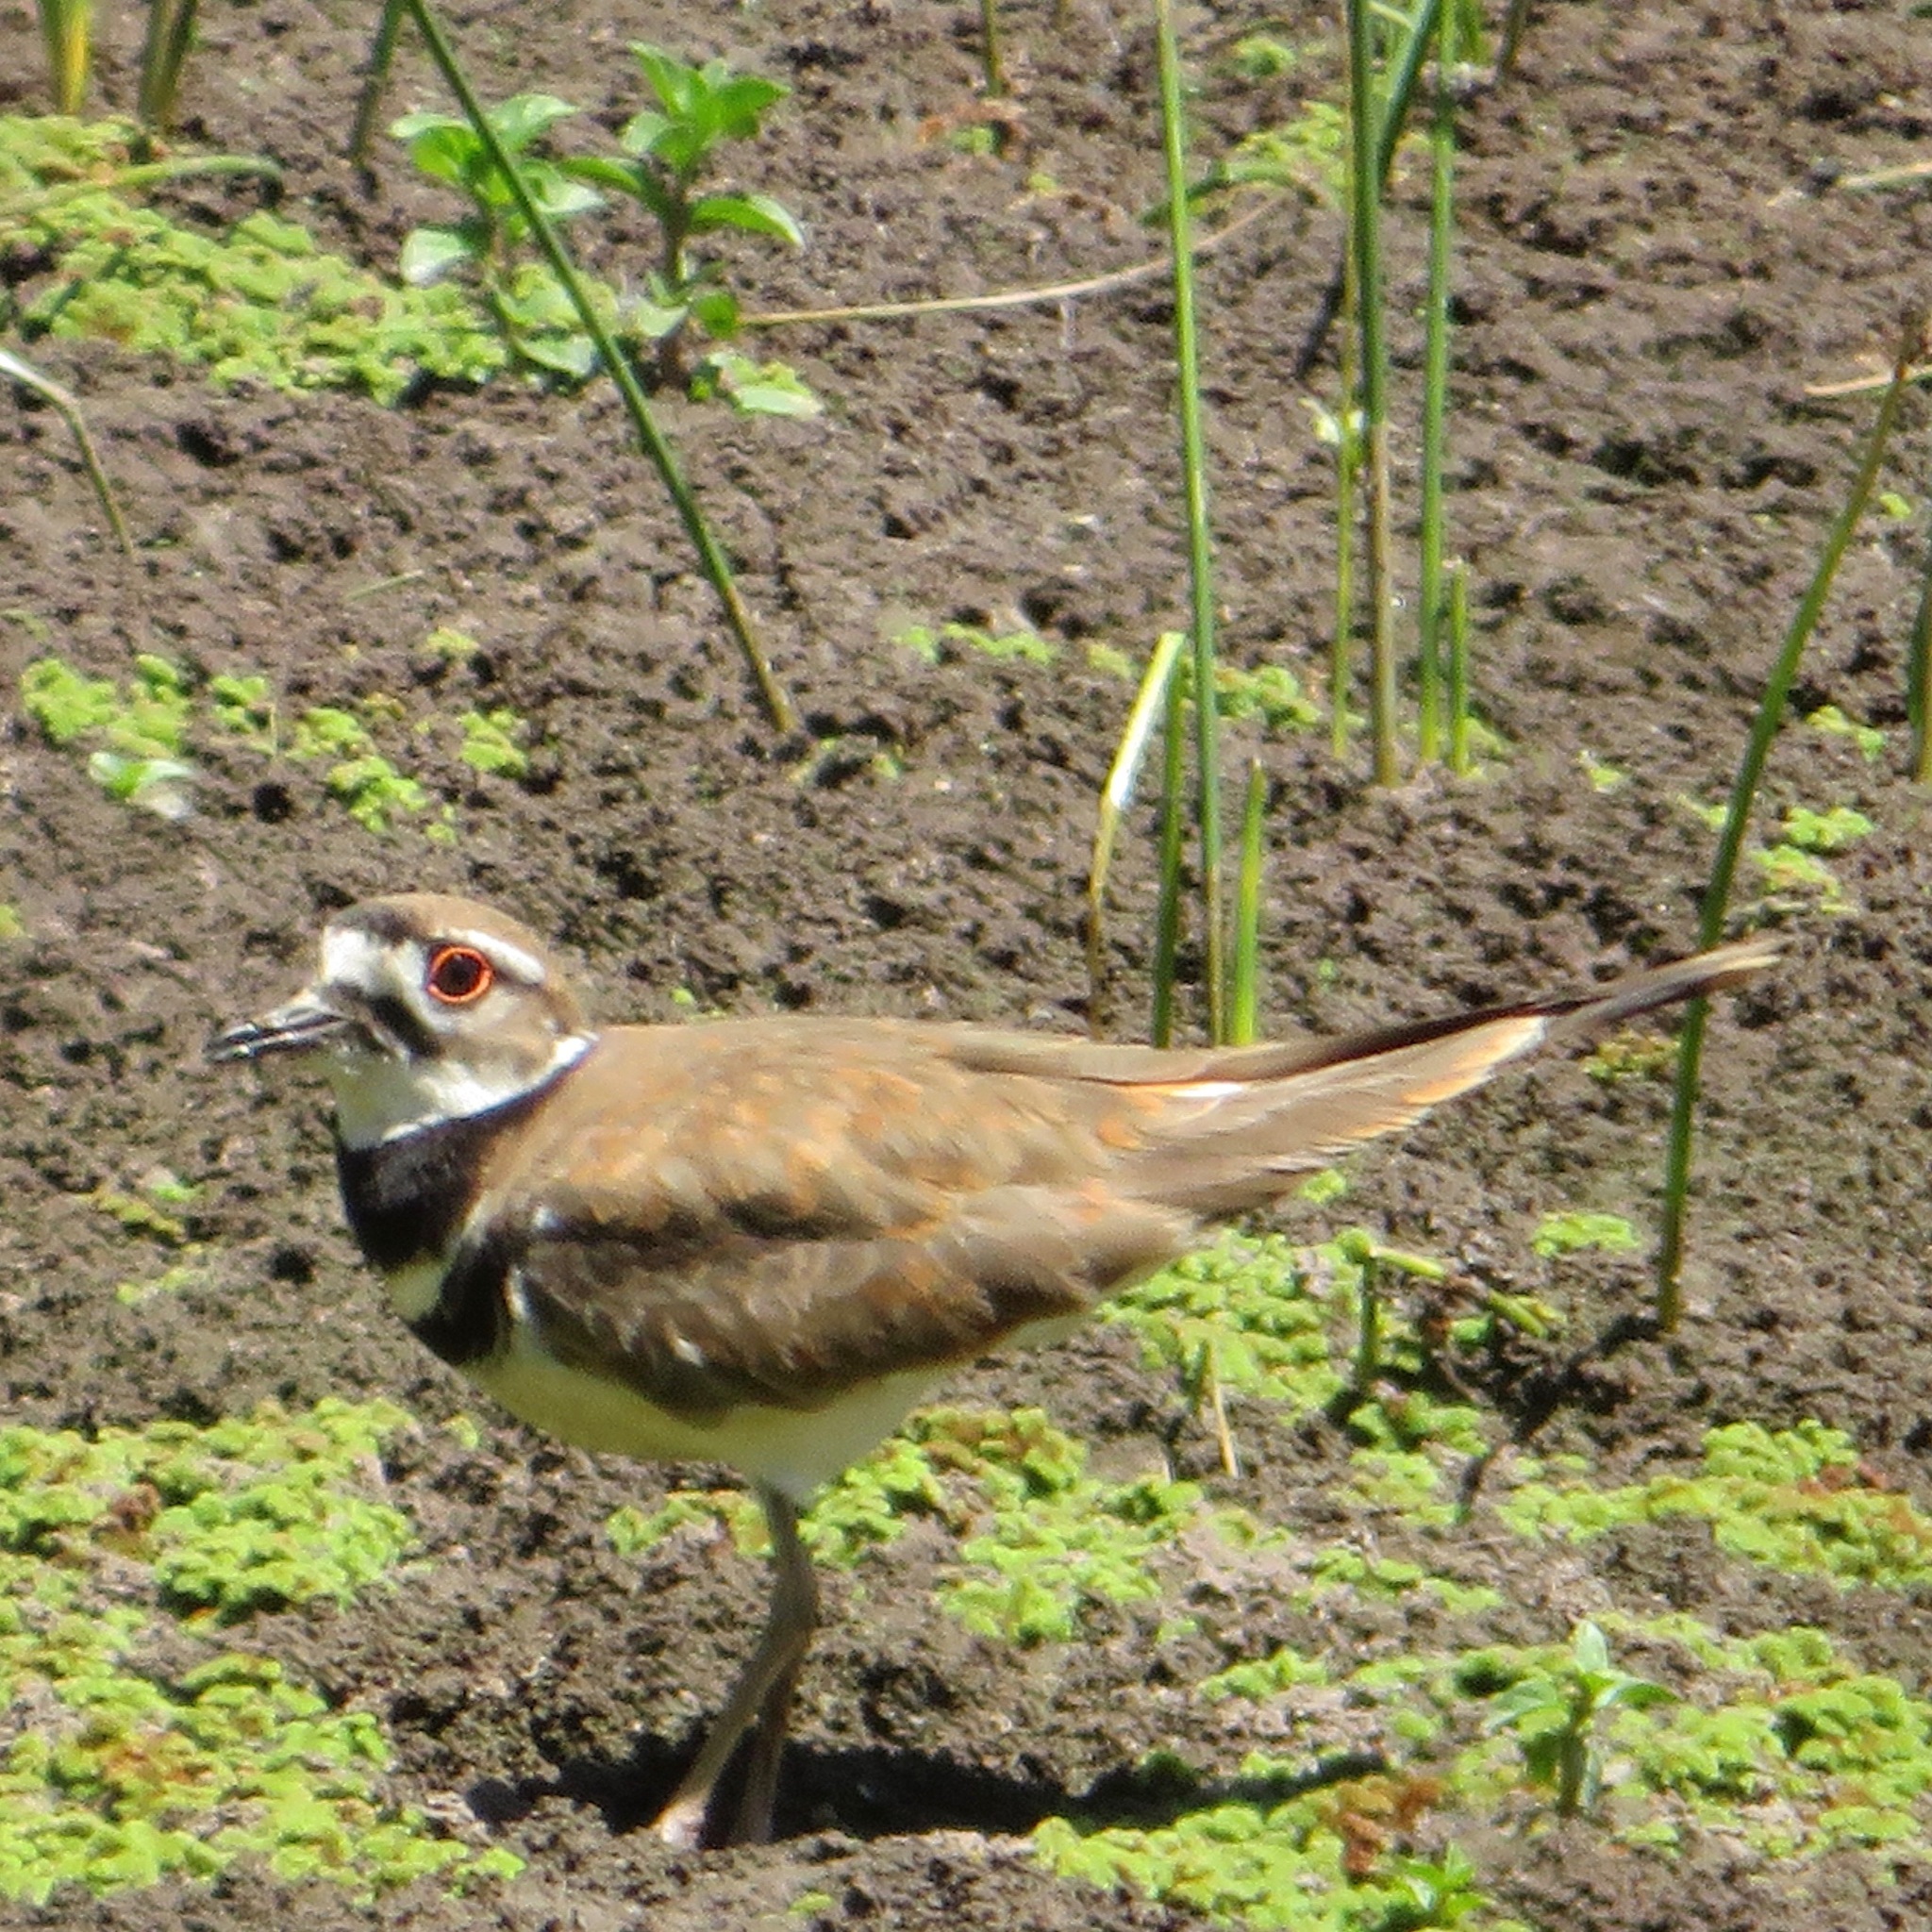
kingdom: Animalia
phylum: Chordata
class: Aves
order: Charadriiformes
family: Charadriidae
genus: Charadrius
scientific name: Charadrius vociferus
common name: Killdeer
